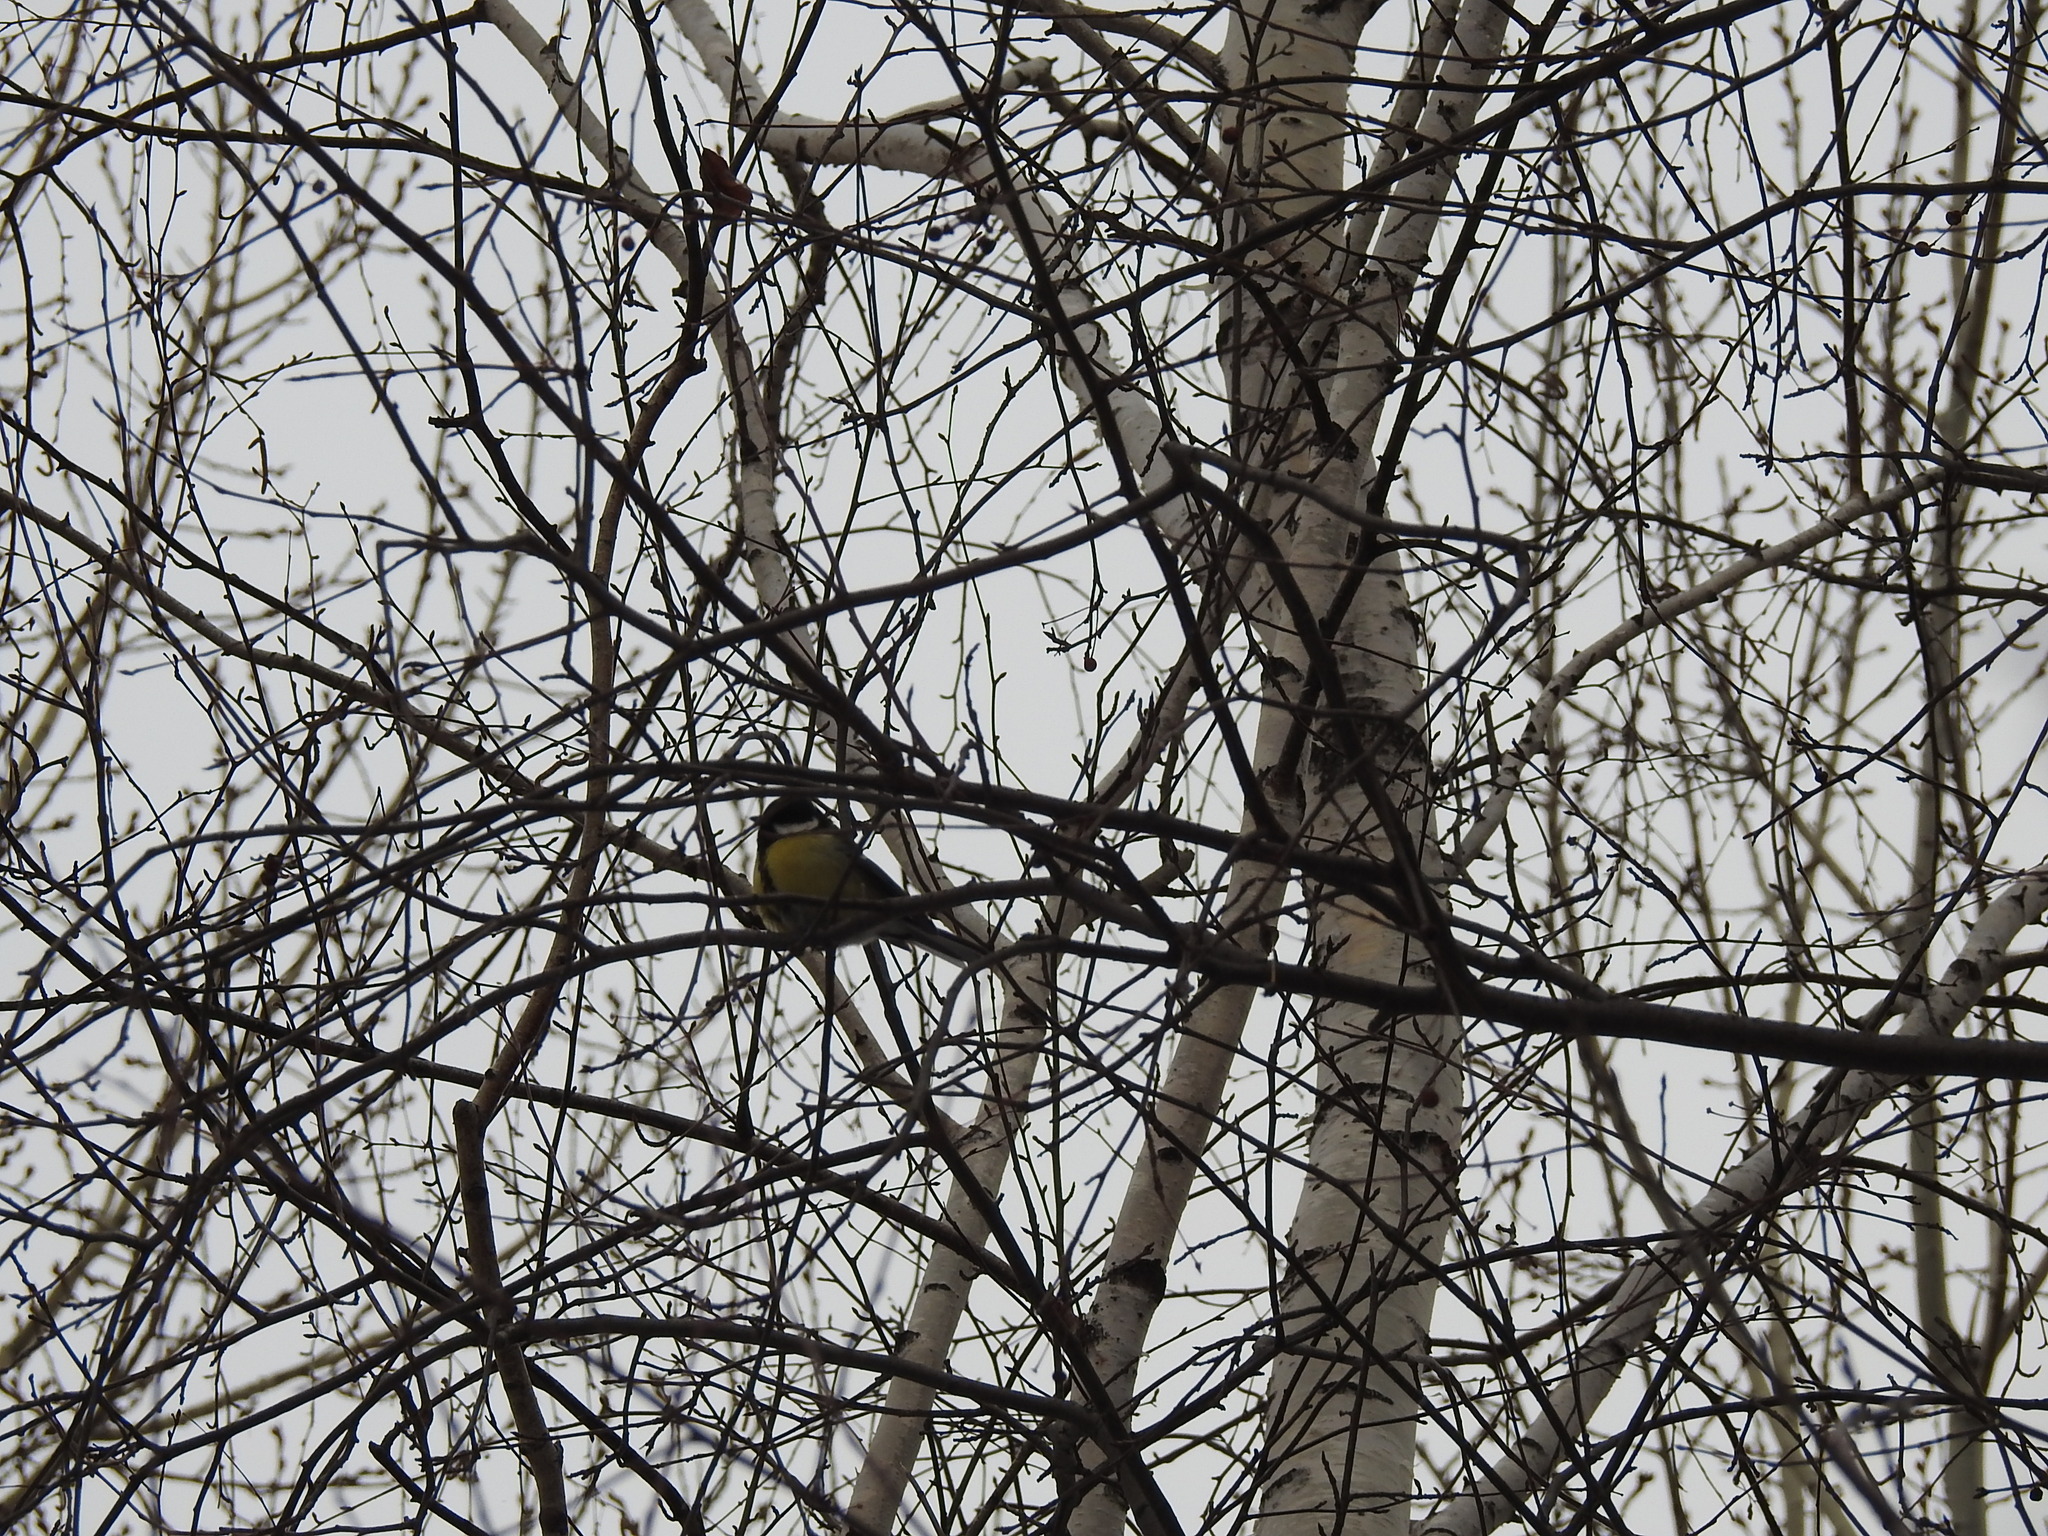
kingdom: Animalia
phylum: Chordata
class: Aves
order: Passeriformes
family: Paridae
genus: Parus
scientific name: Parus major
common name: Great tit
